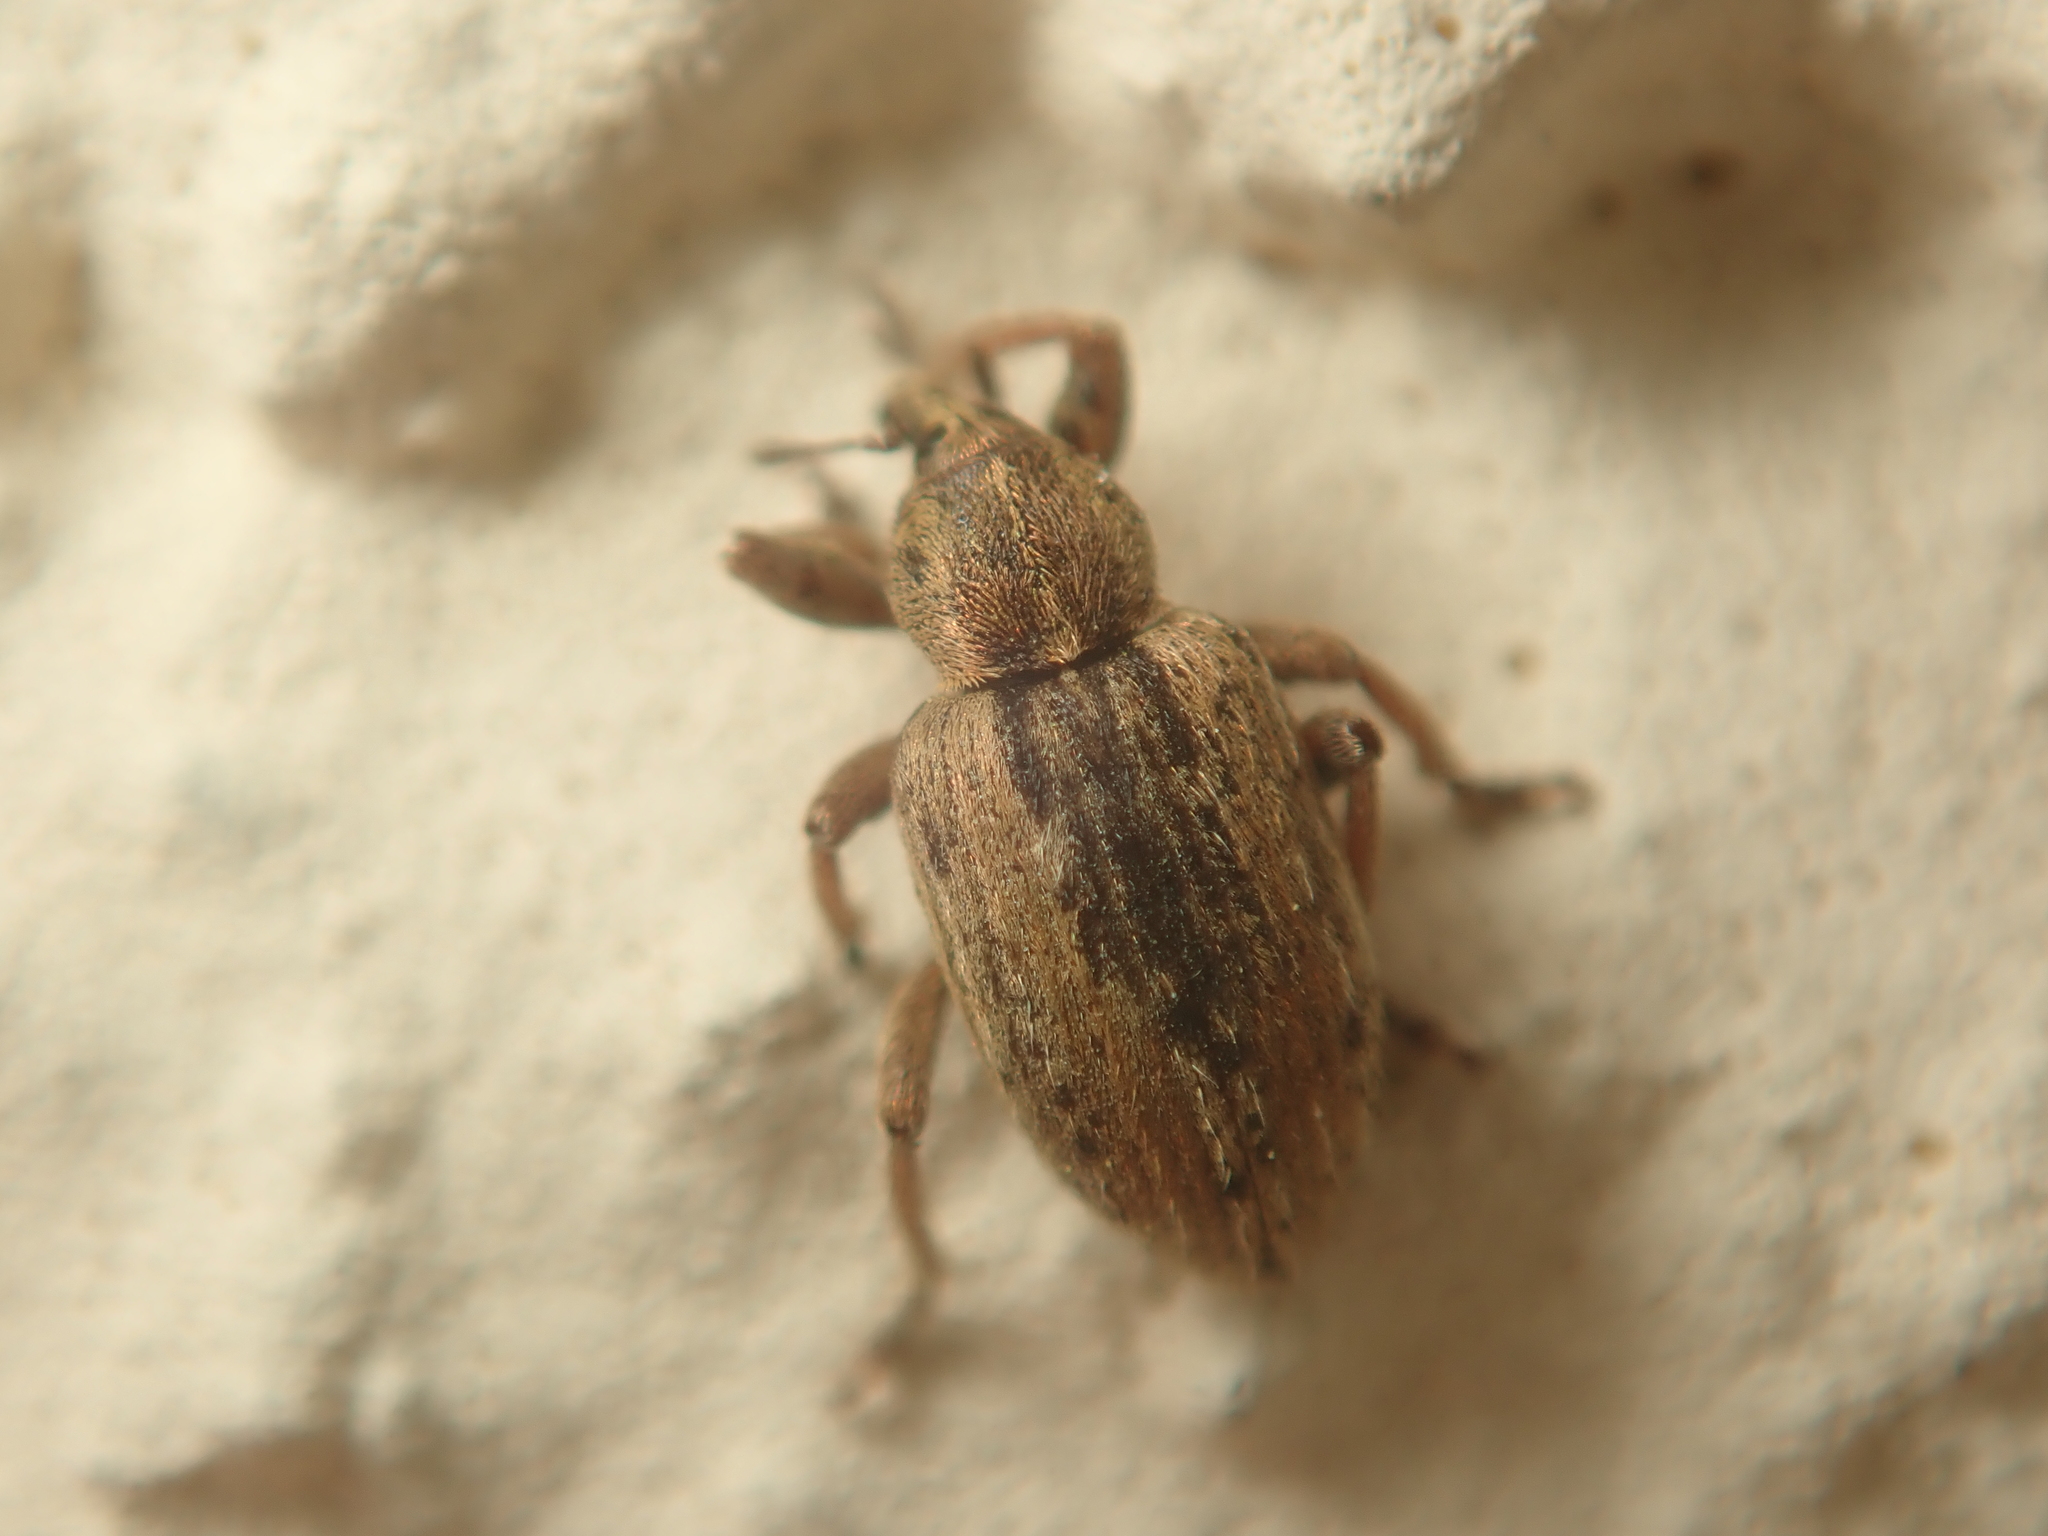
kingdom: Animalia
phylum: Arthropoda
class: Insecta
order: Coleoptera
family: Curculionidae
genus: Hypera
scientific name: Hypera postica
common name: Weevil
